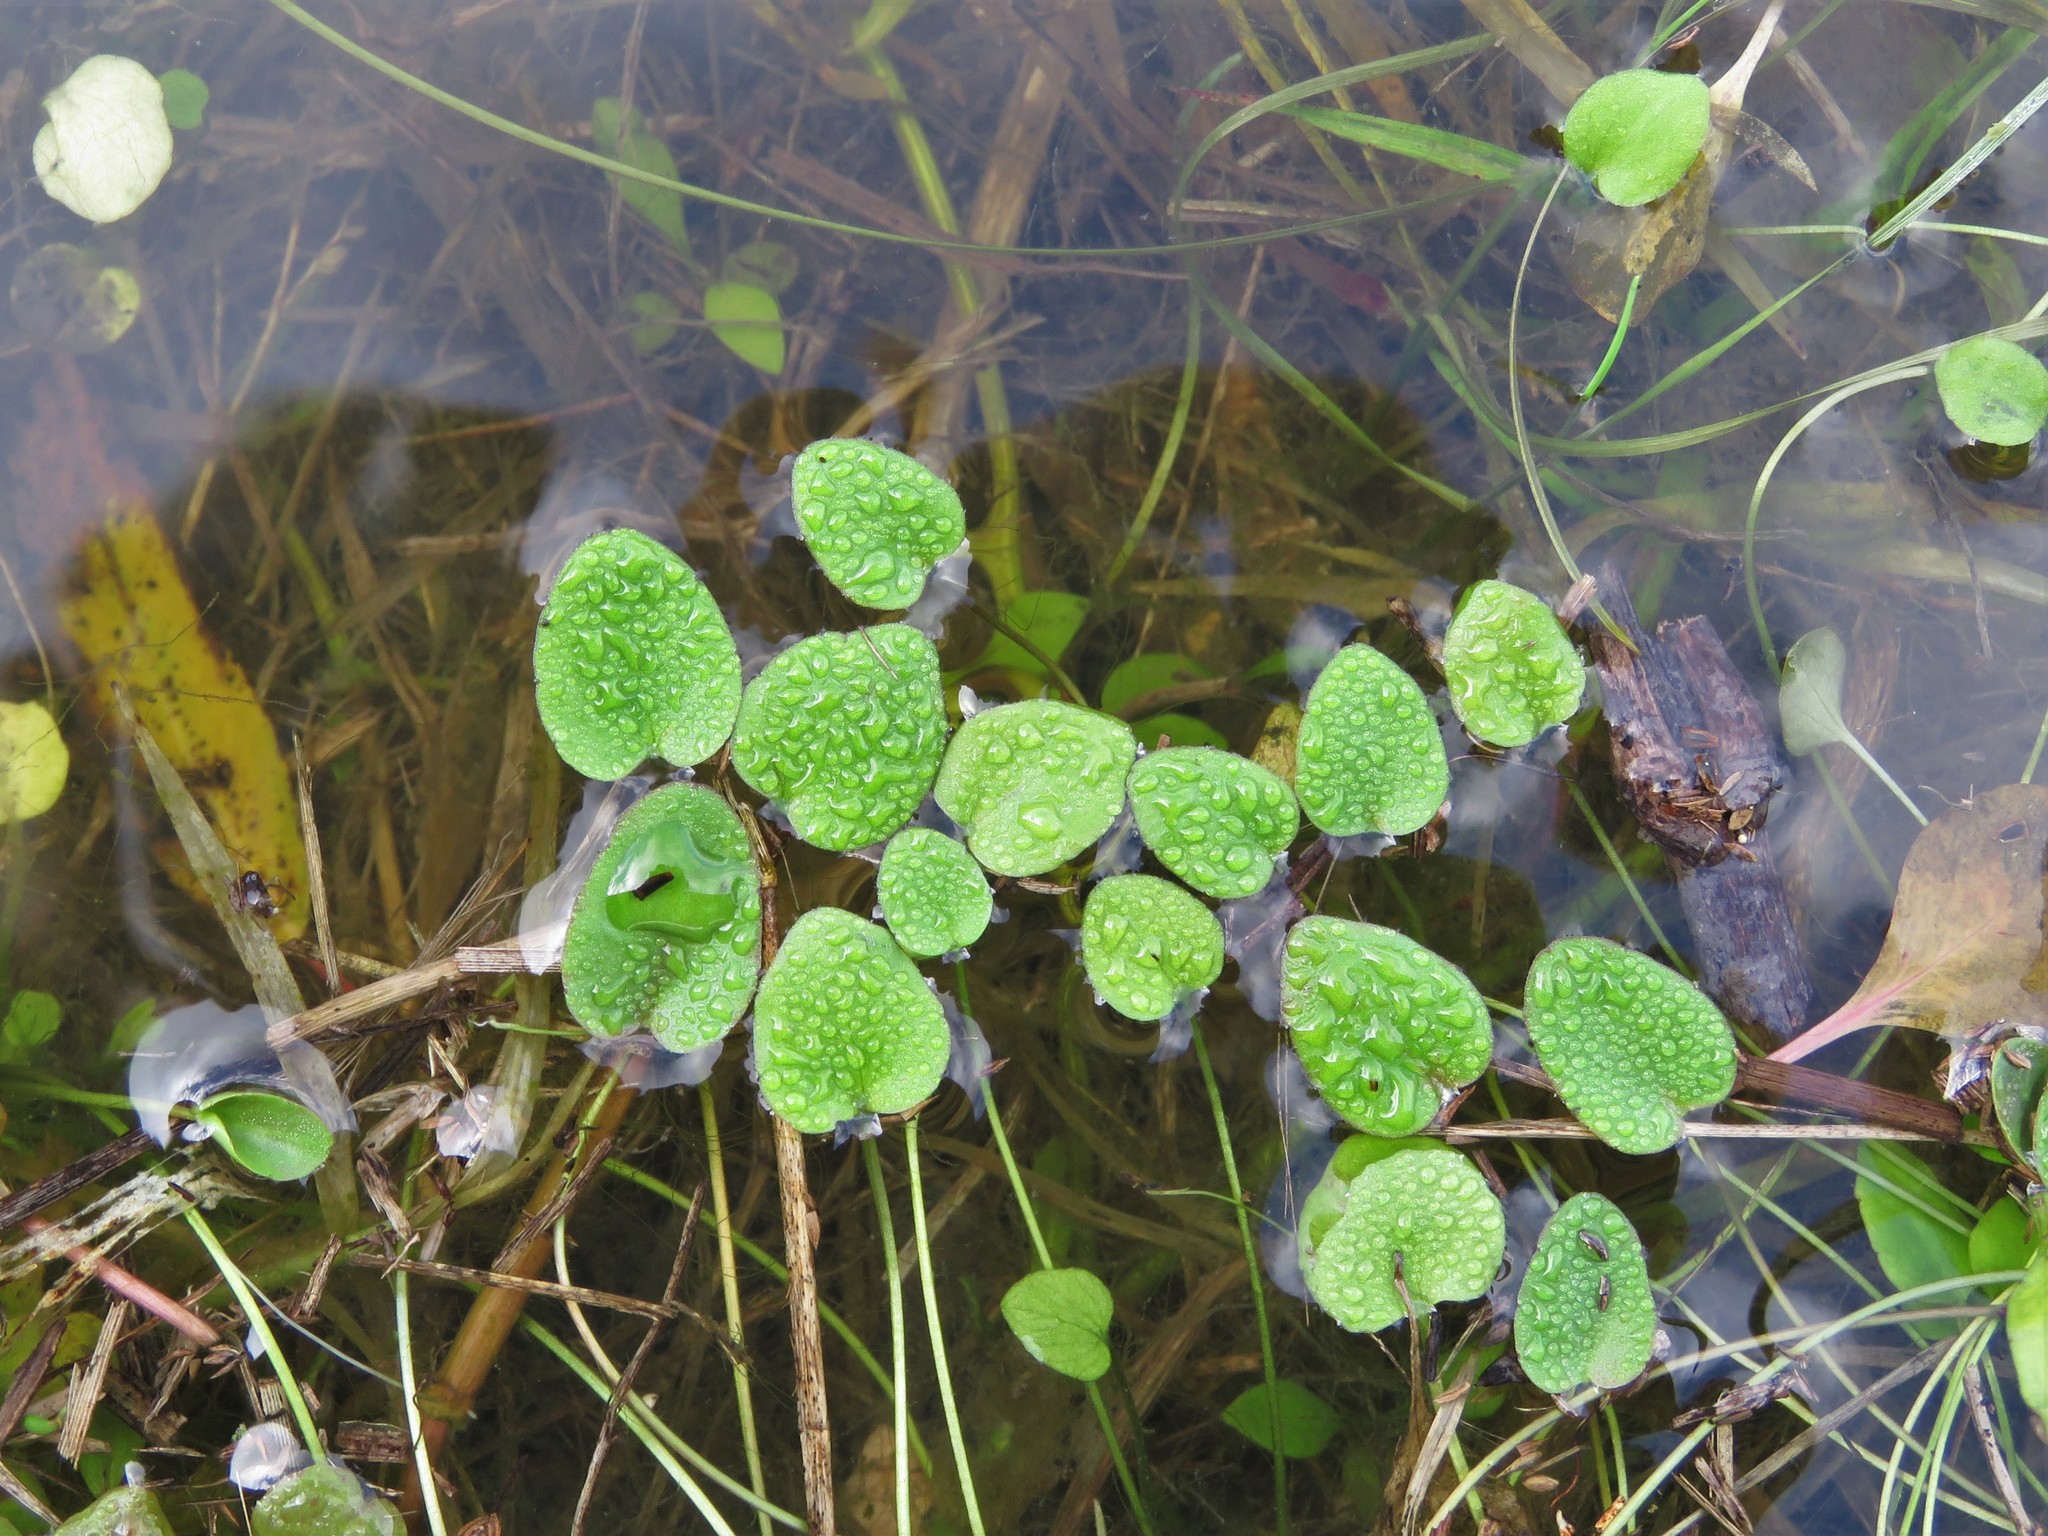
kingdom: Plantae
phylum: Tracheophyta
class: Liliopsida
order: Alismatales
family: Hydrocharitaceae
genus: Hydrocharis
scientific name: Hydrocharis spongia
